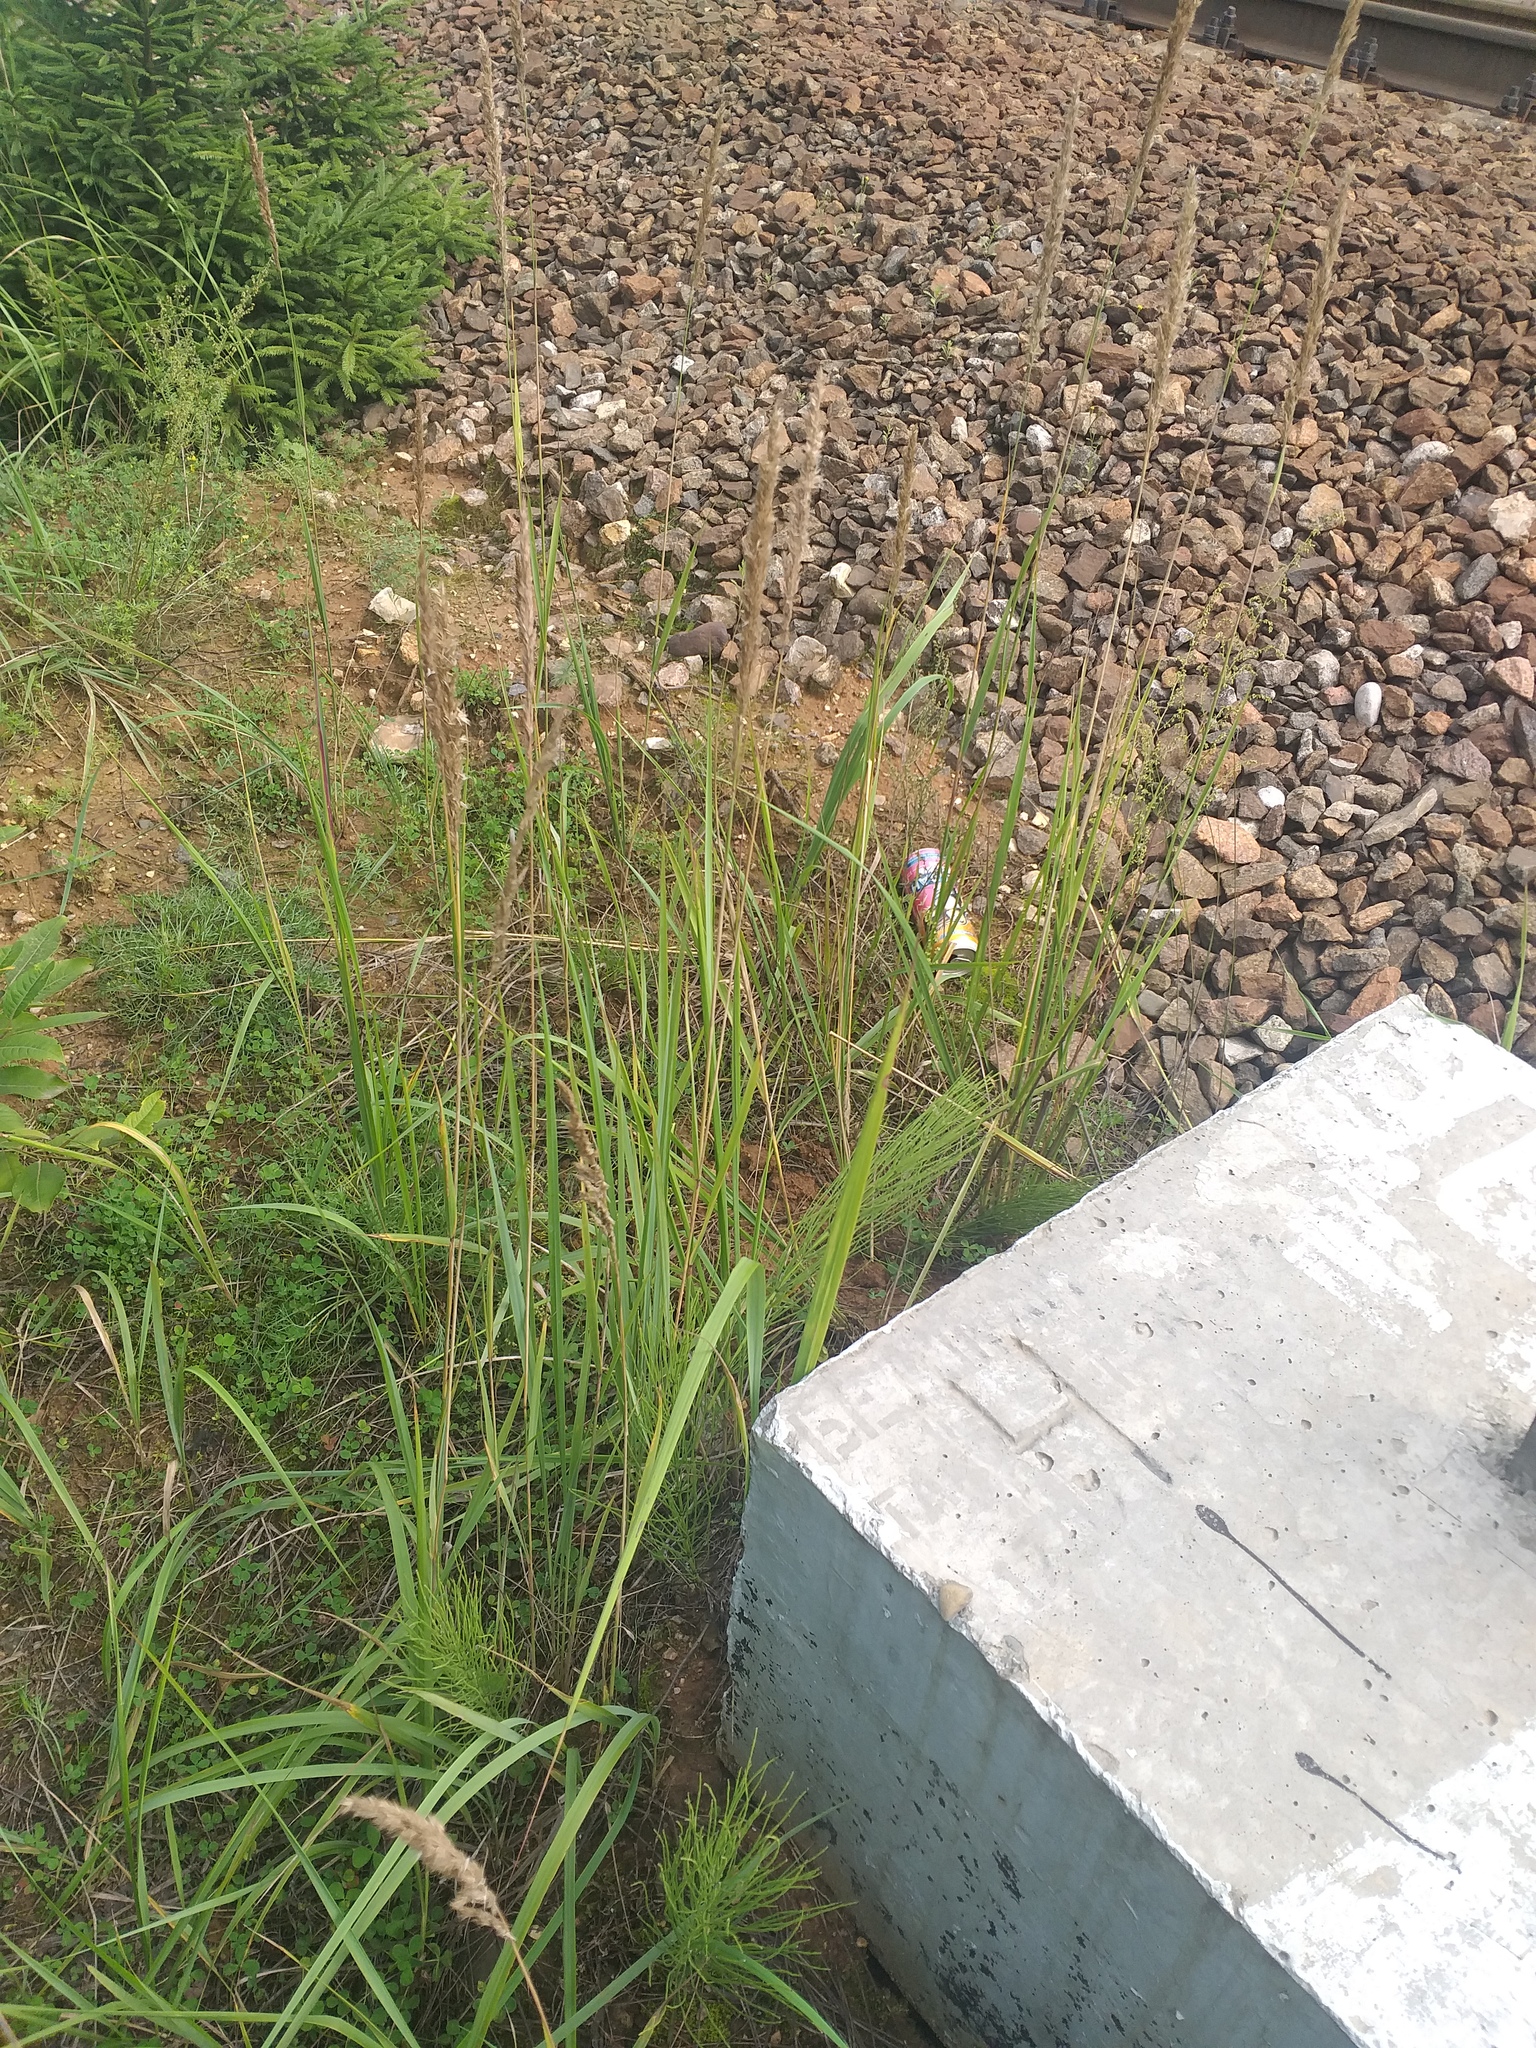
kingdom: Plantae
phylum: Tracheophyta
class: Liliopsida
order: Poales
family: Poaceae
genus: Calamagrostis
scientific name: Calamagrostis epigejos
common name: Wood small-reed
